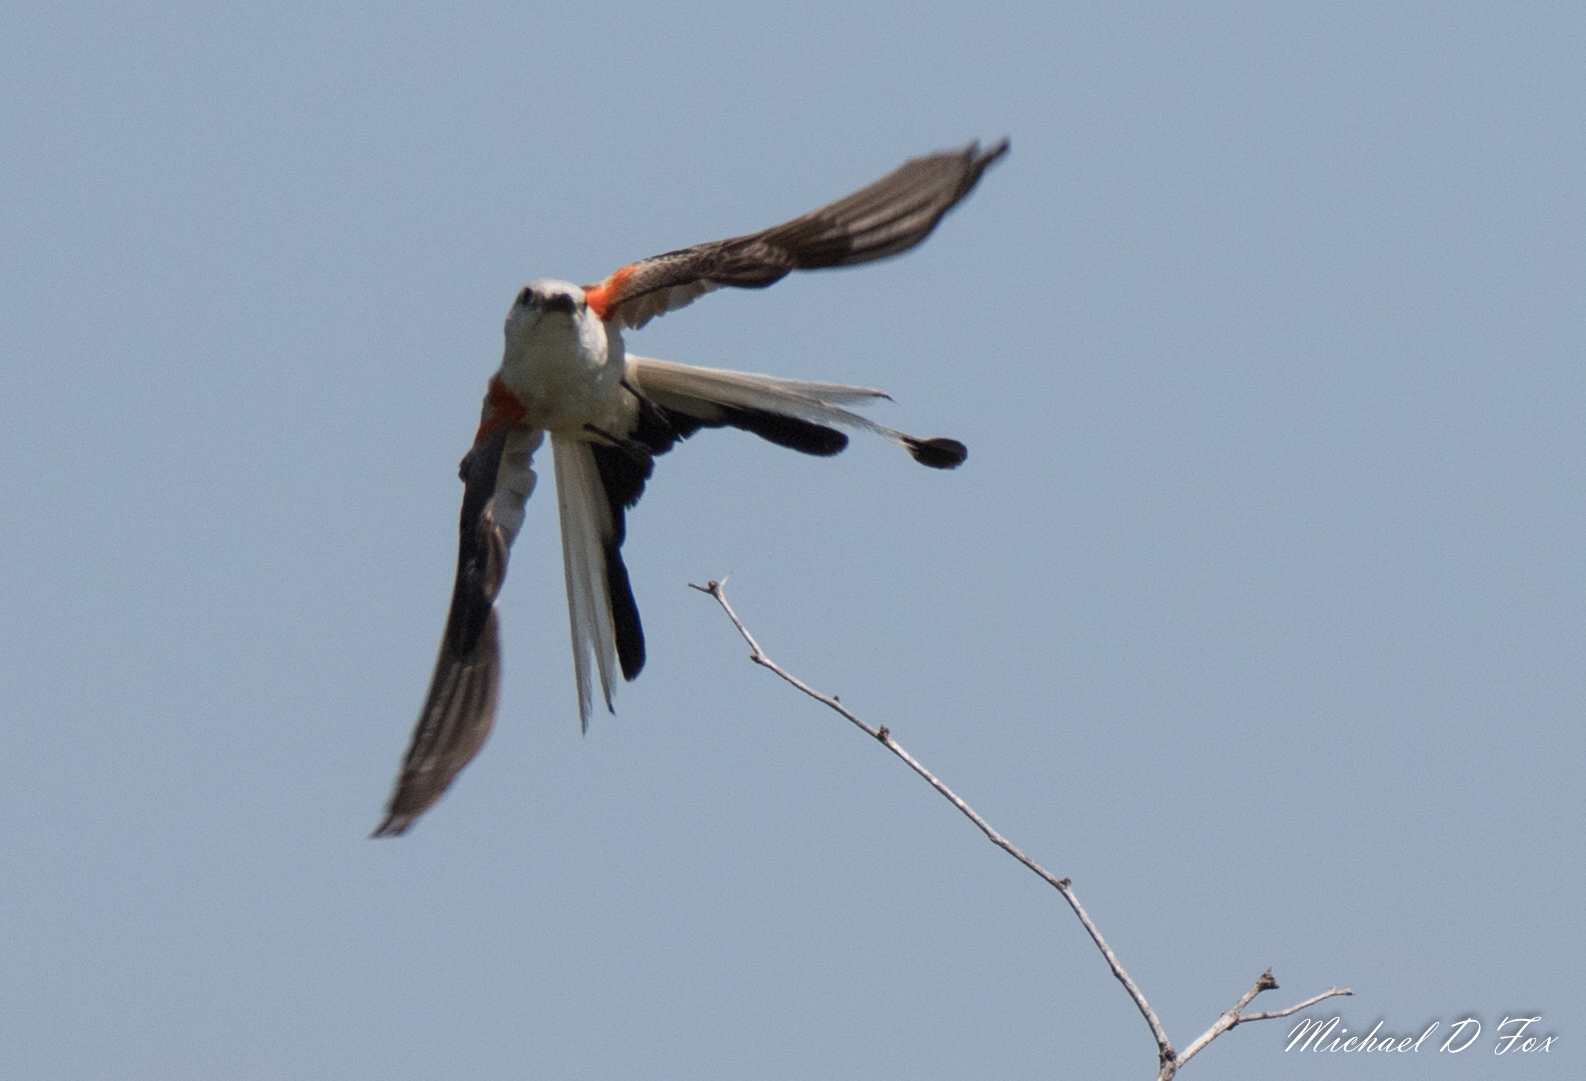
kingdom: Animalia
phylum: Chordata
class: Aves
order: Passeriformes
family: Tyrannidae
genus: Tyrannus
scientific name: Tyrannus forficatus
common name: Scissor-tailed flycatcher
